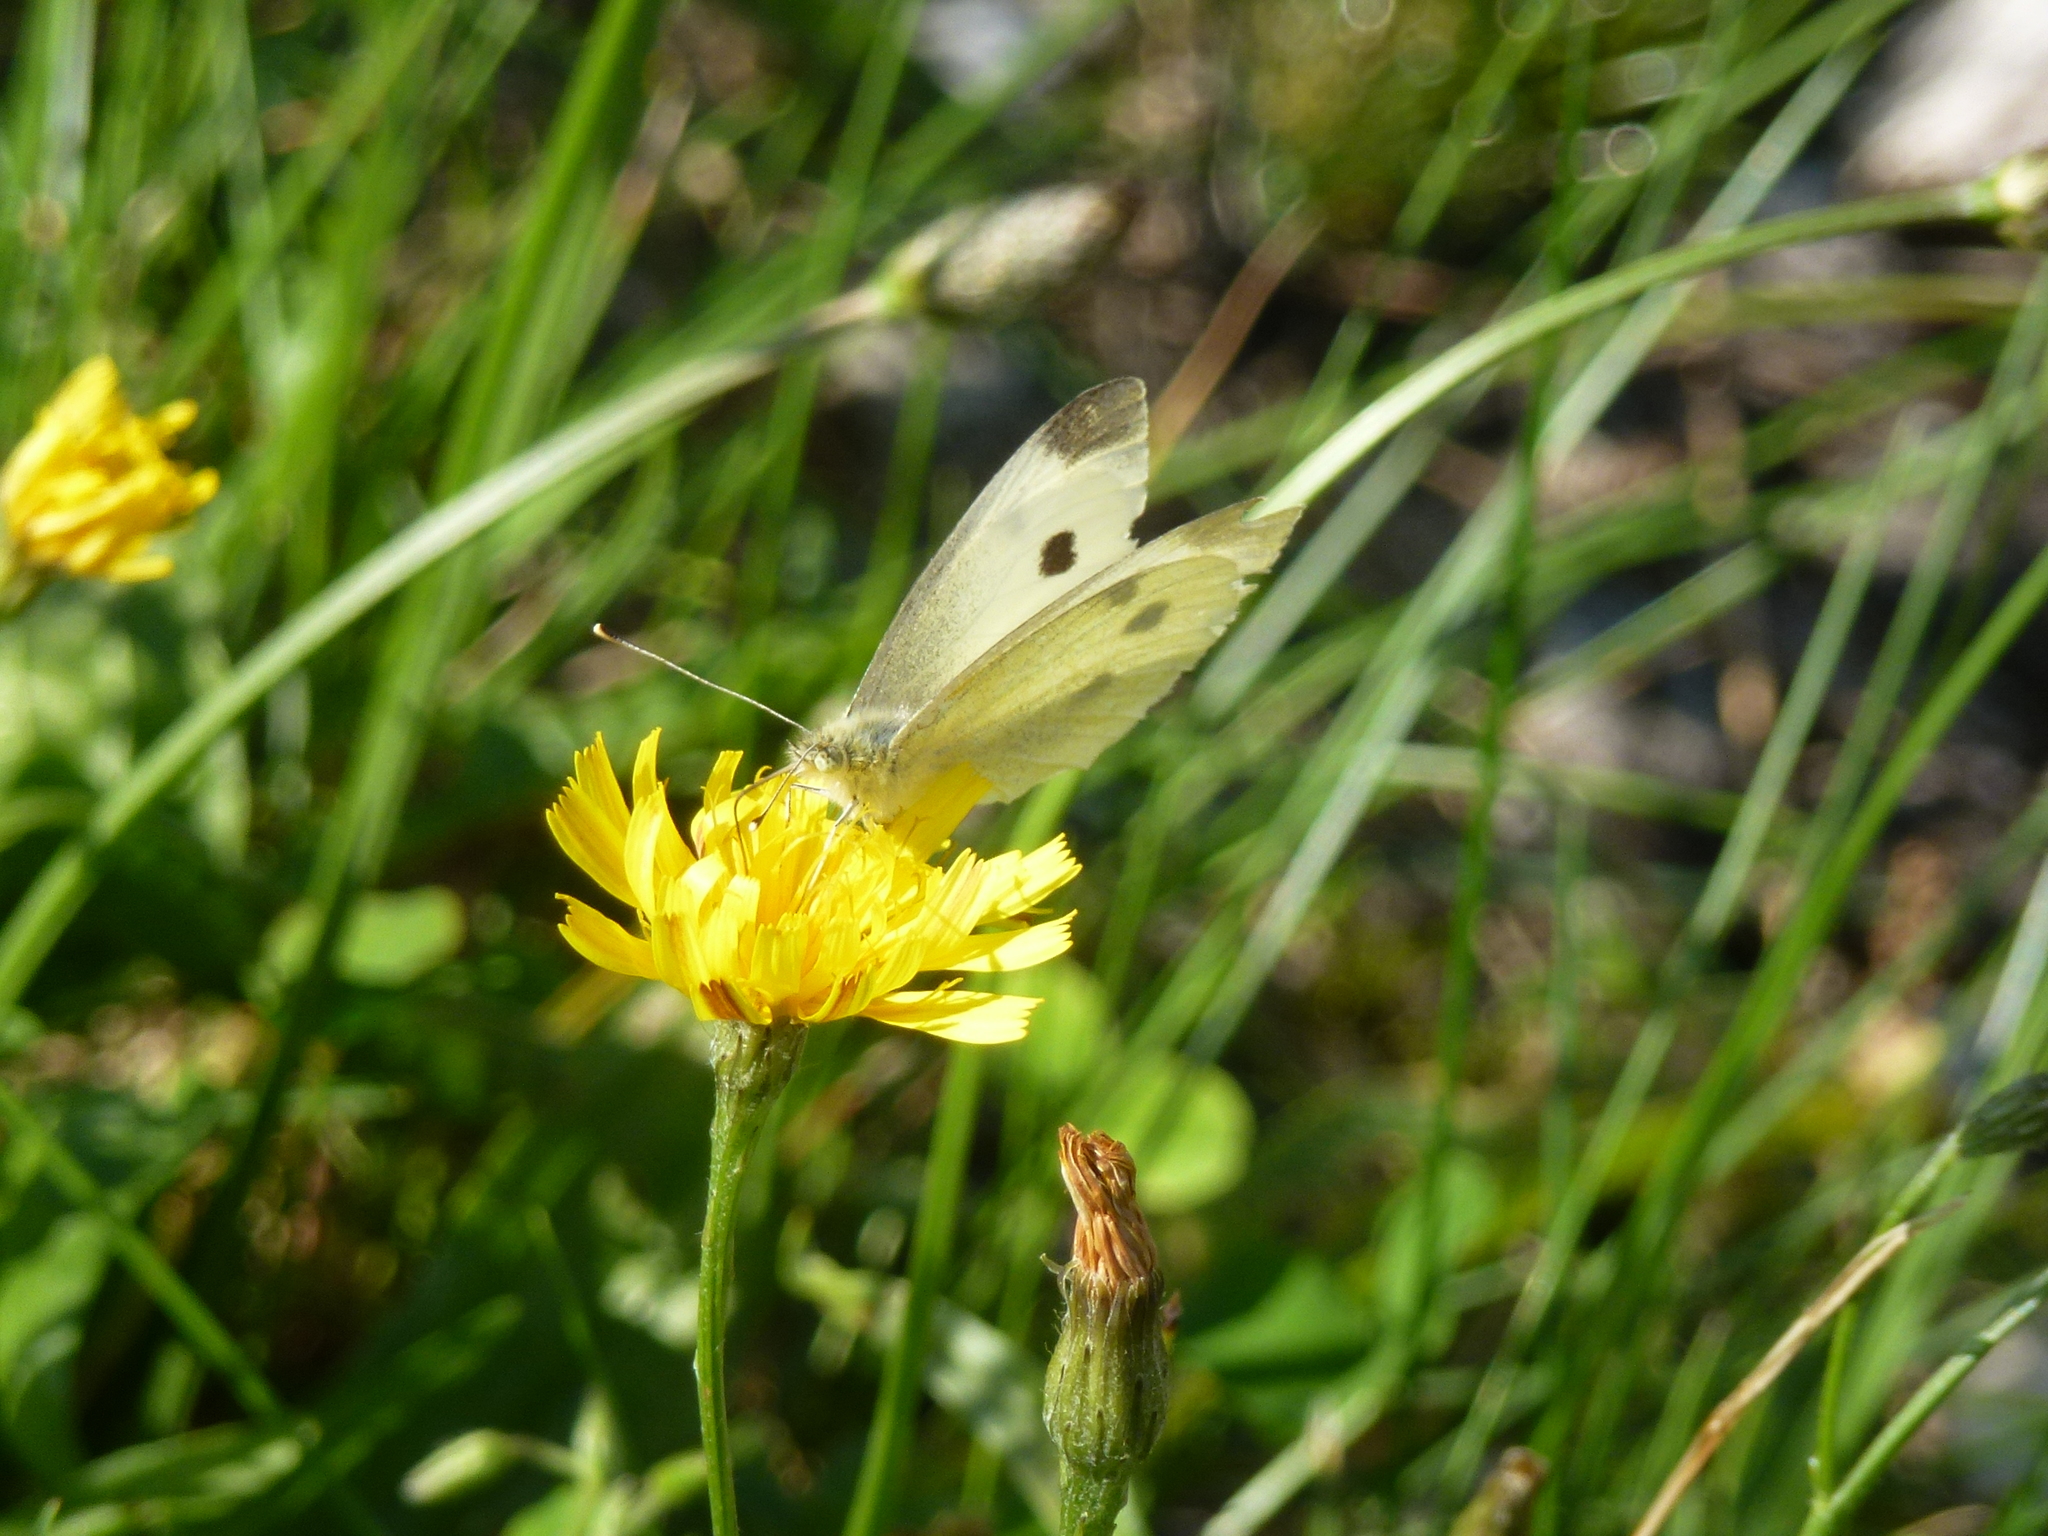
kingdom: Animalia
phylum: Arthropoda
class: Insecta
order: Lepidoptera
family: Pieridae
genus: Pieris
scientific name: Pieris rapae
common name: Small white
